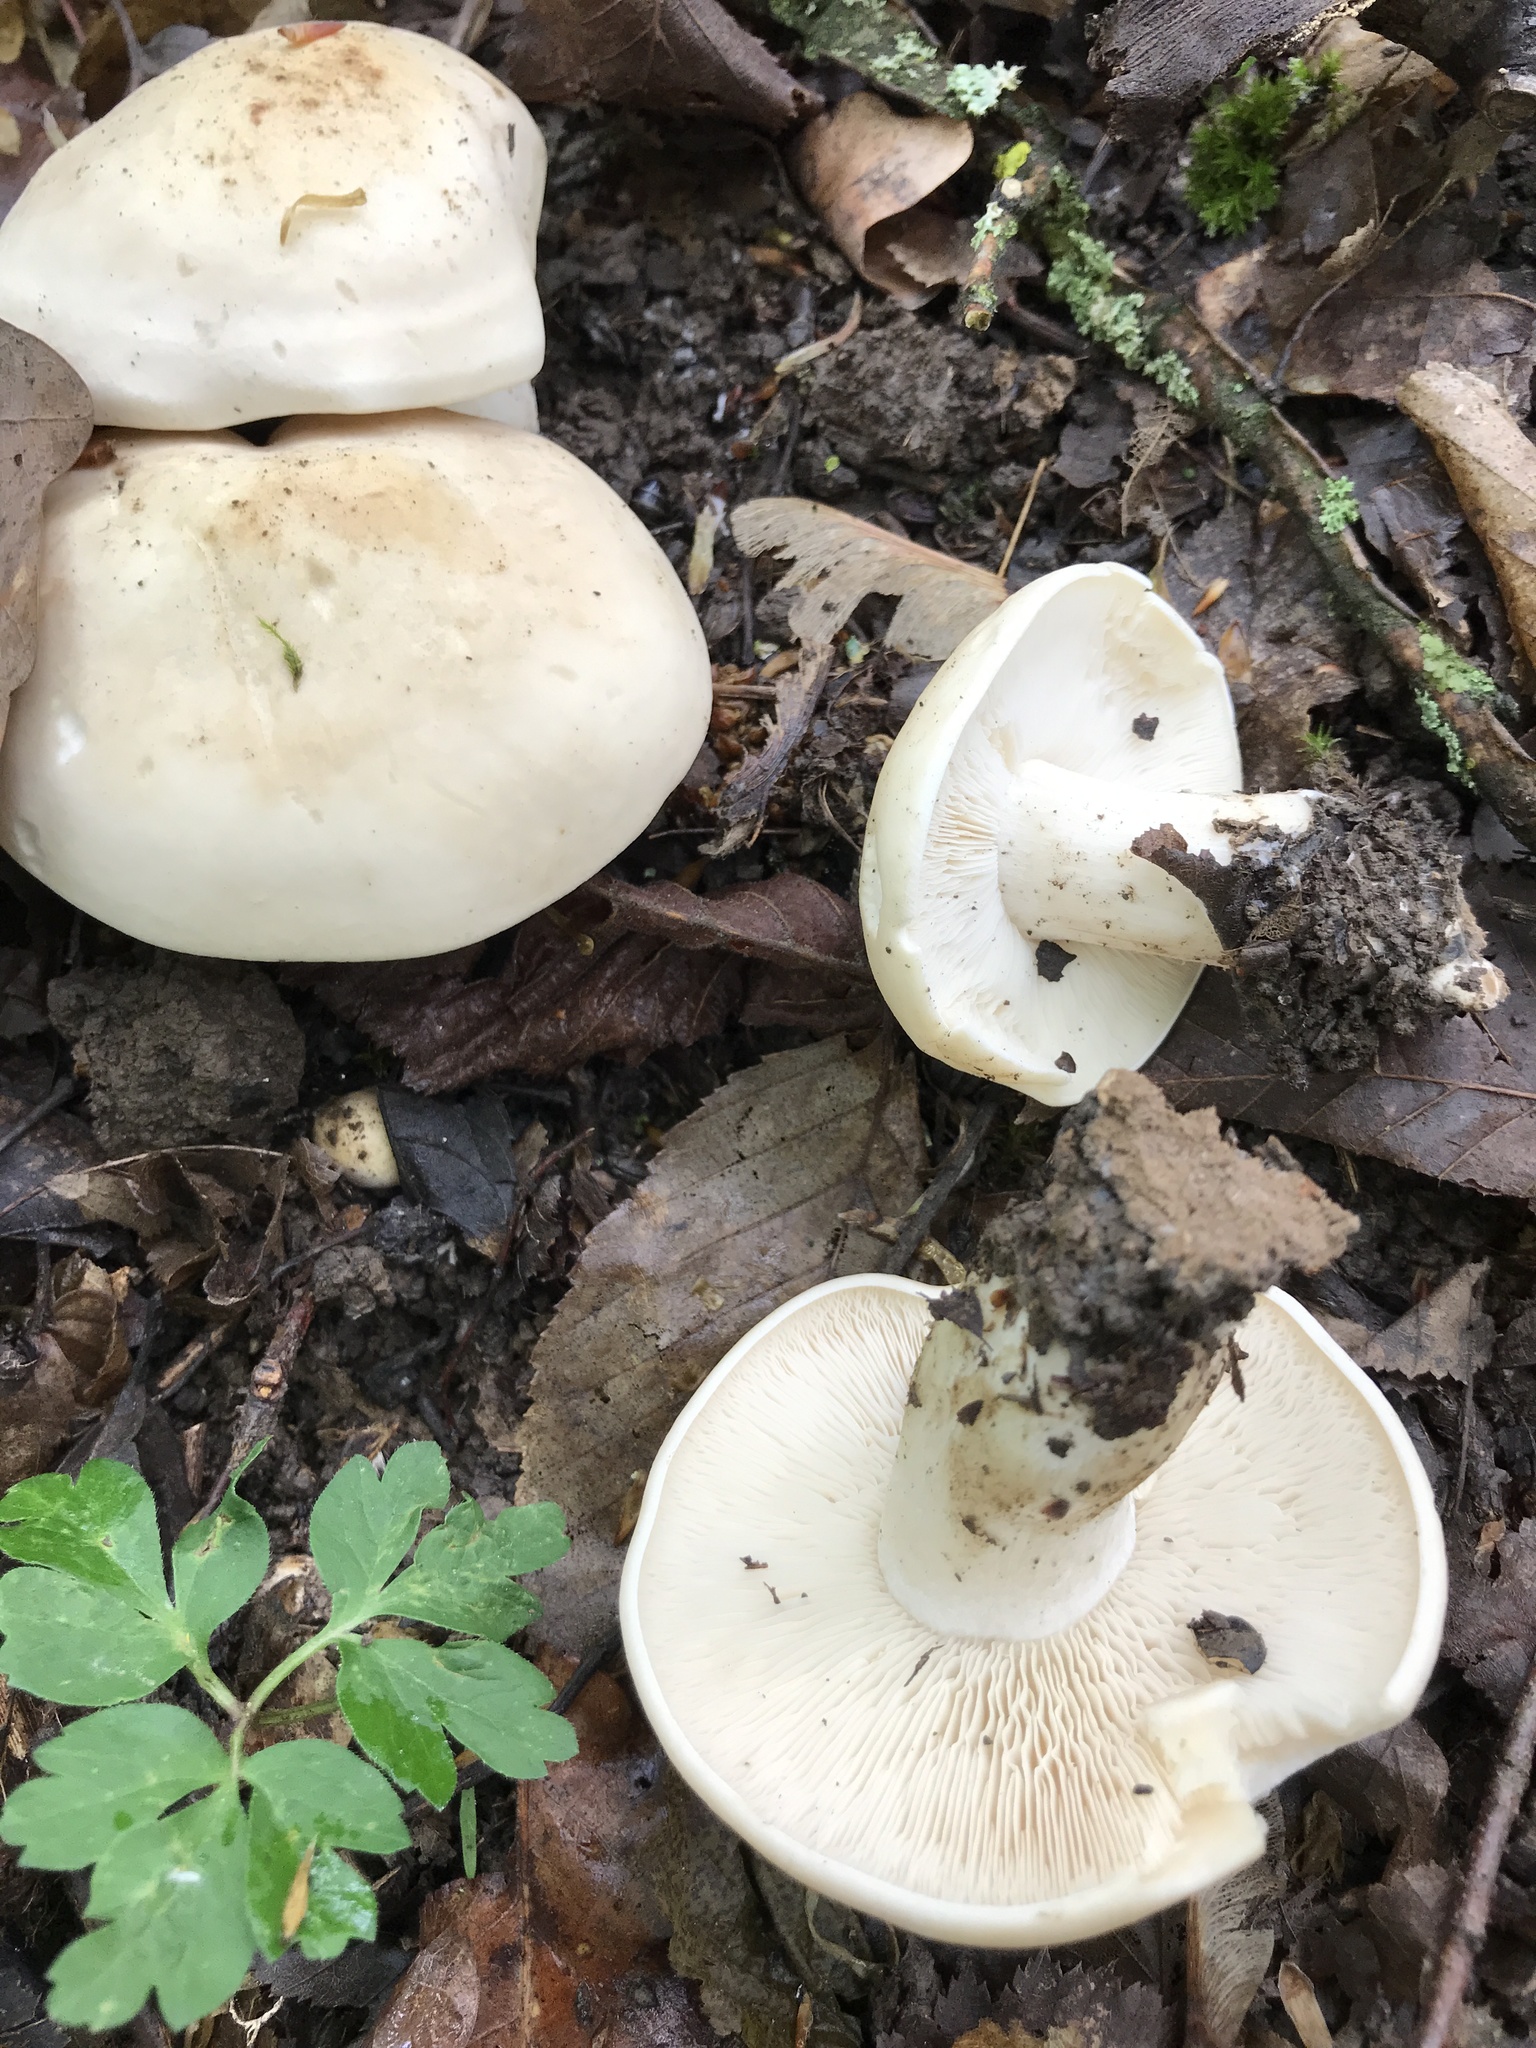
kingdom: Fungi
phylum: Basidiomycota
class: Agaricomycetes
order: Agaricales
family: Lyophyllaceae
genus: Calocybe
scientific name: Calocybe gambosa
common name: St. george's mushroom
